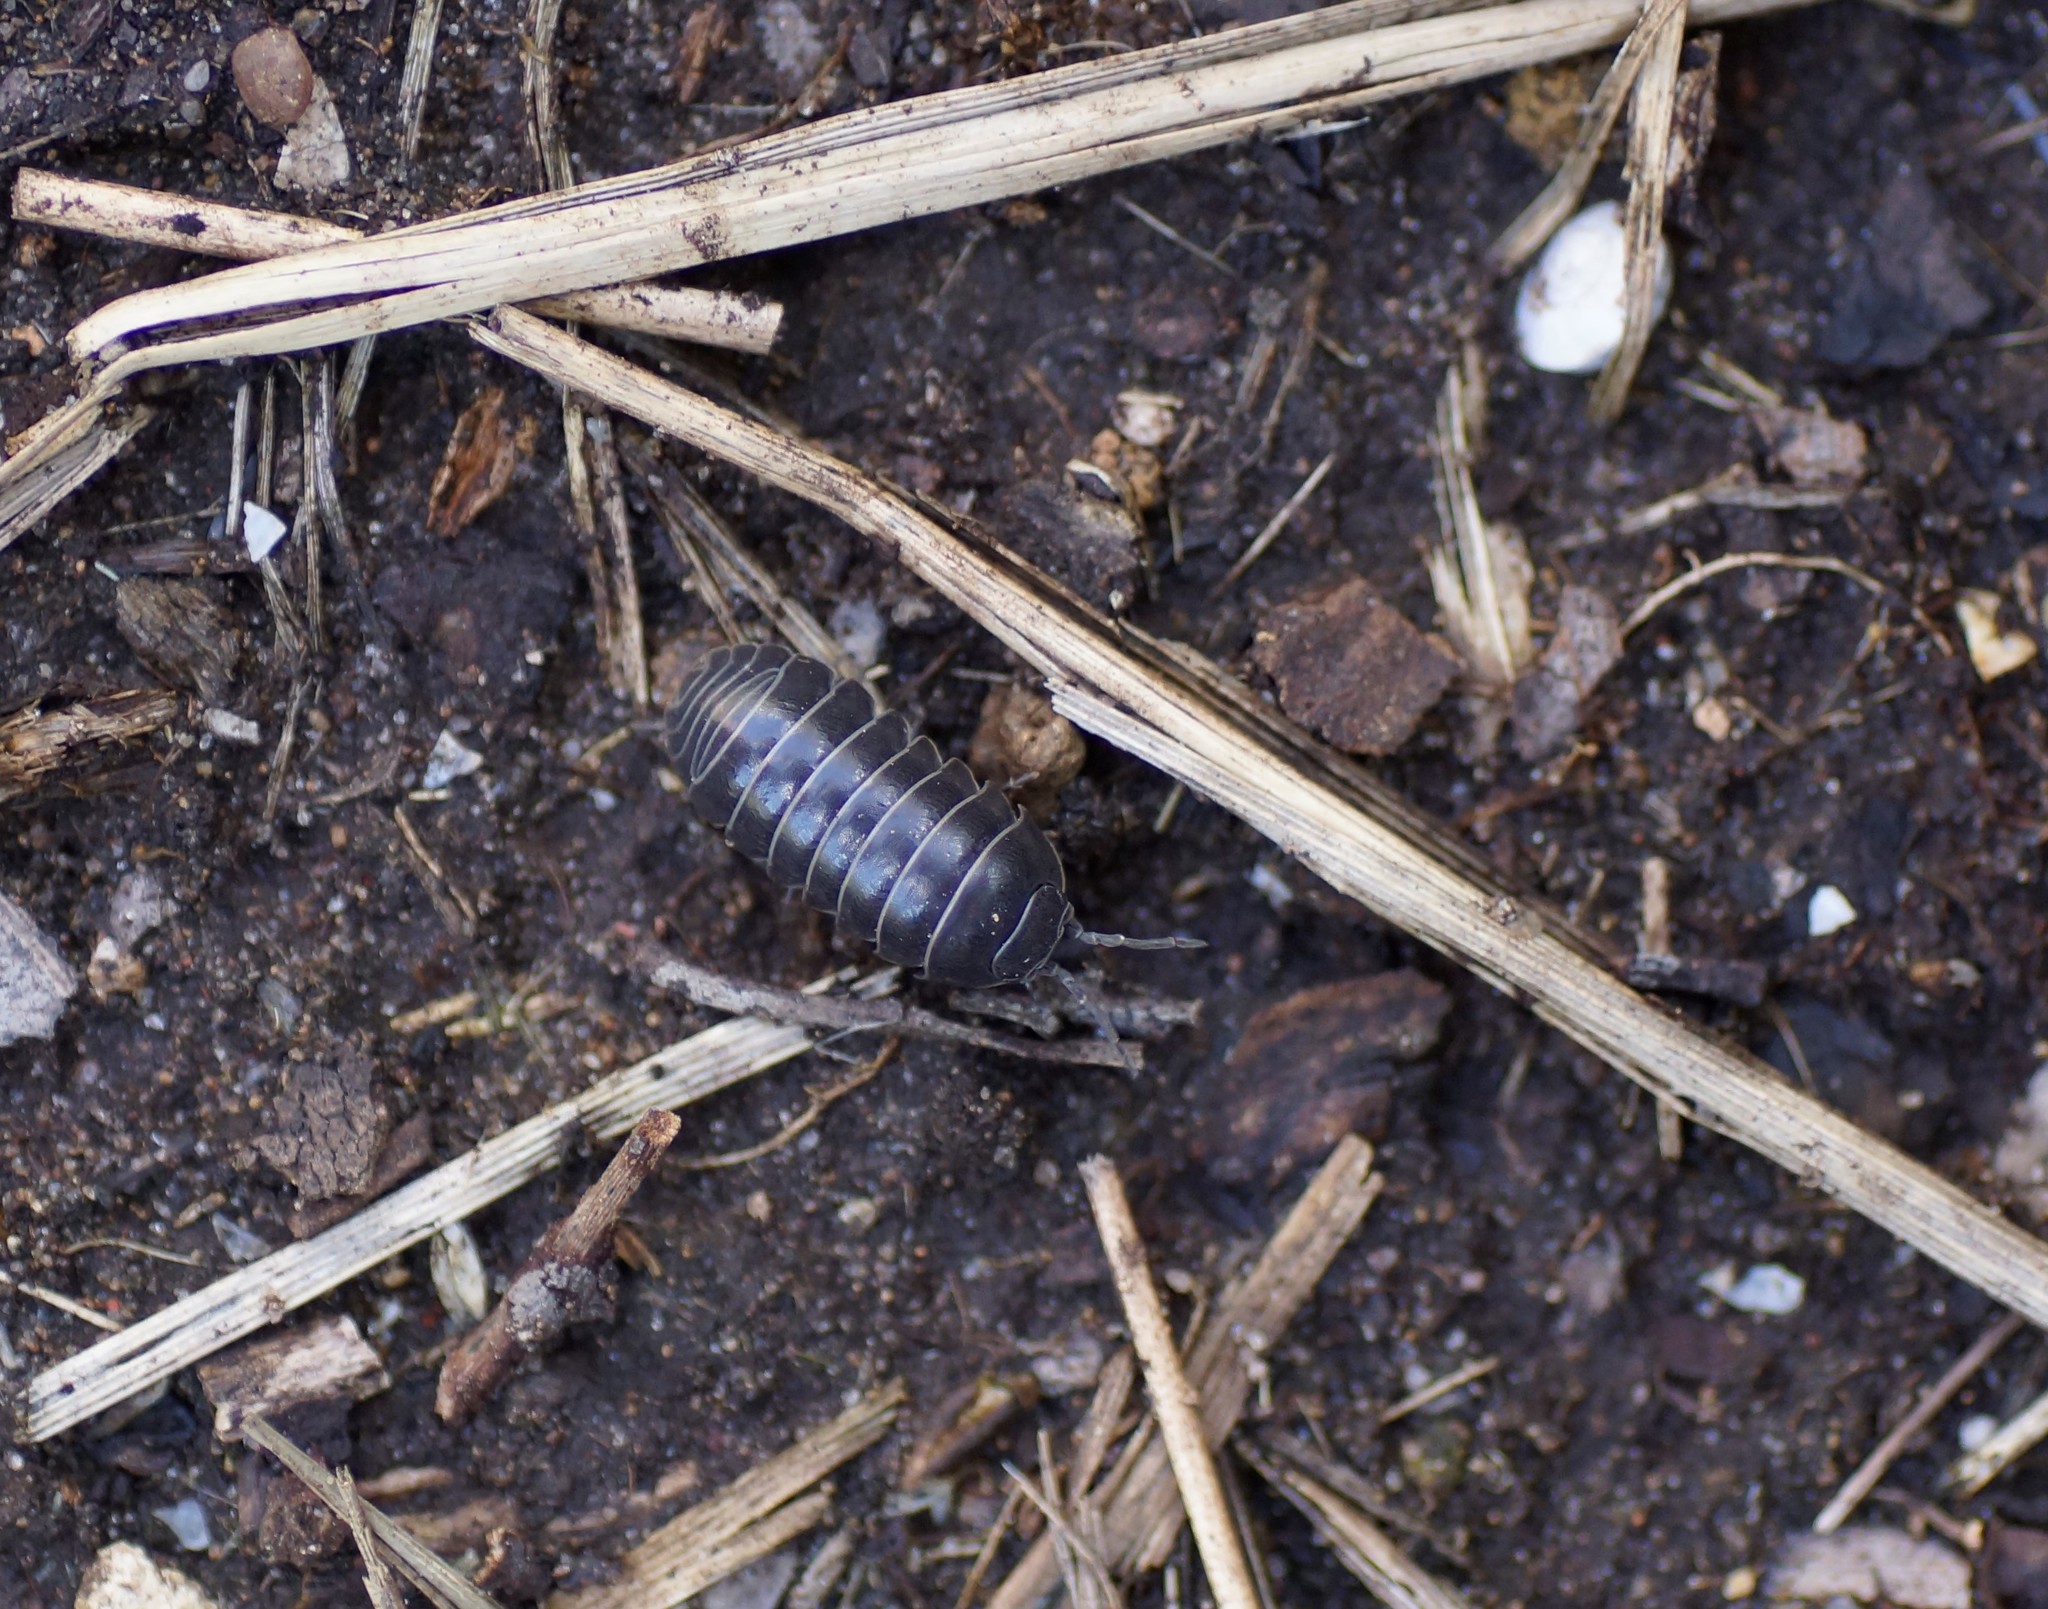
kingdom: Animalia
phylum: Arthropoda
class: Malacostraca
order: Isopoda
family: Armadillidiidae
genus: Armadillidium
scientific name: Armadillidium vulgare
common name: Common pill woodlouse
